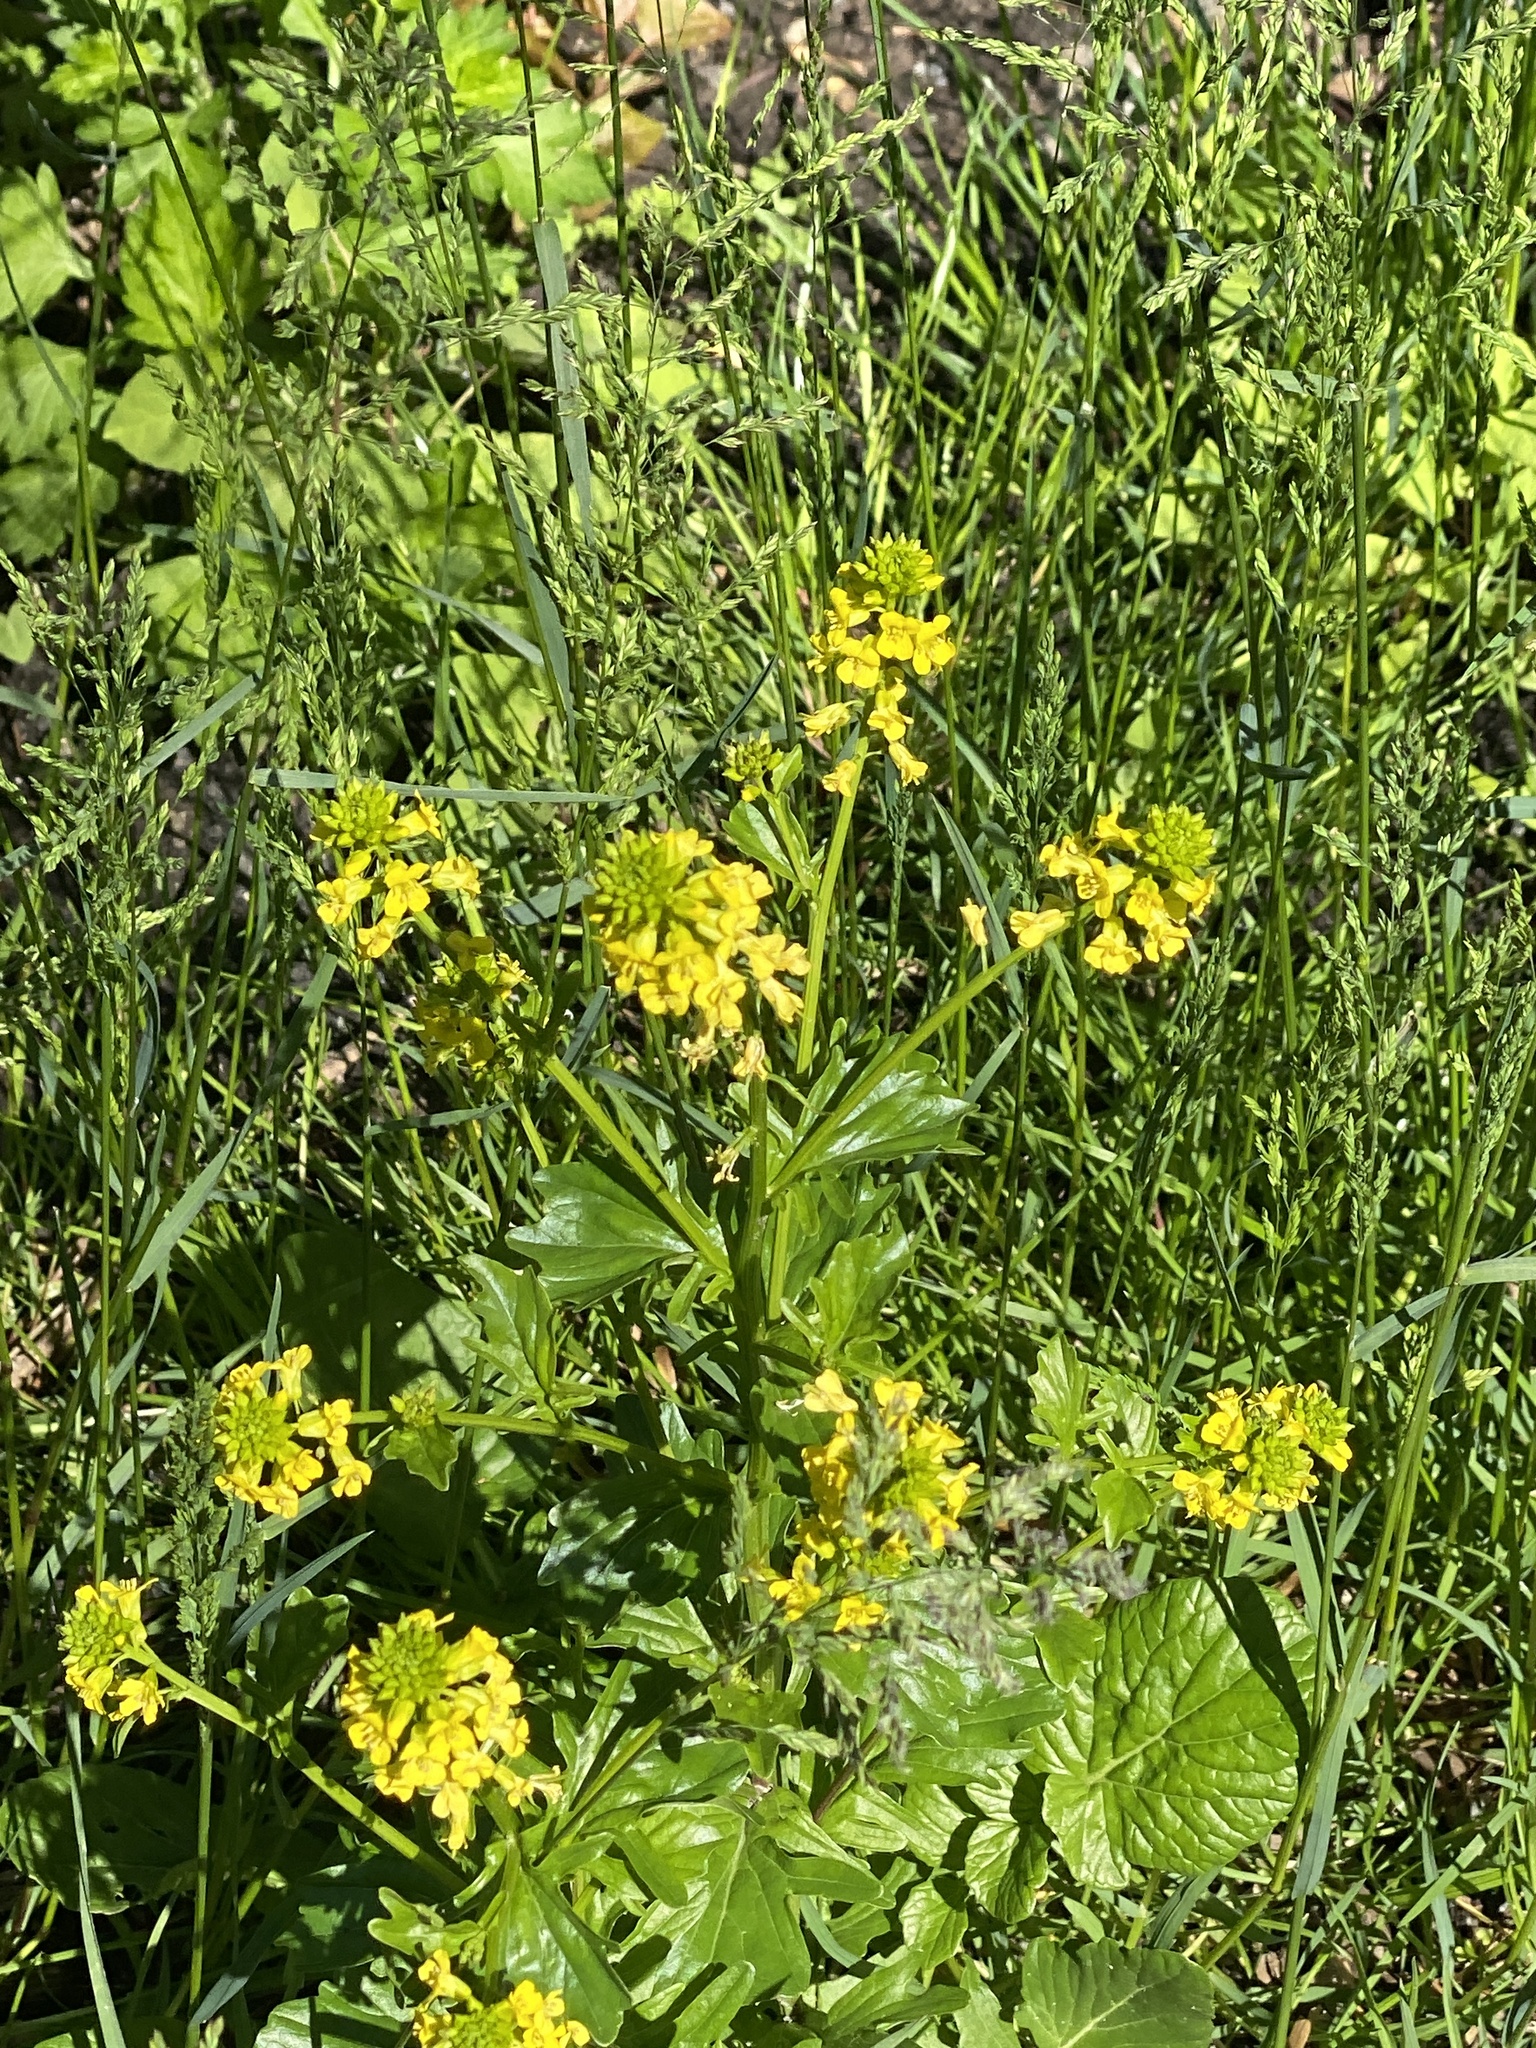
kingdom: Plantae
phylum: Tracheophyta
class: Magnoliopsida
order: Brassicales
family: Brassicaceae
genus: Barbarea
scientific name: Barbarea vulgaris
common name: Cressy-greens
